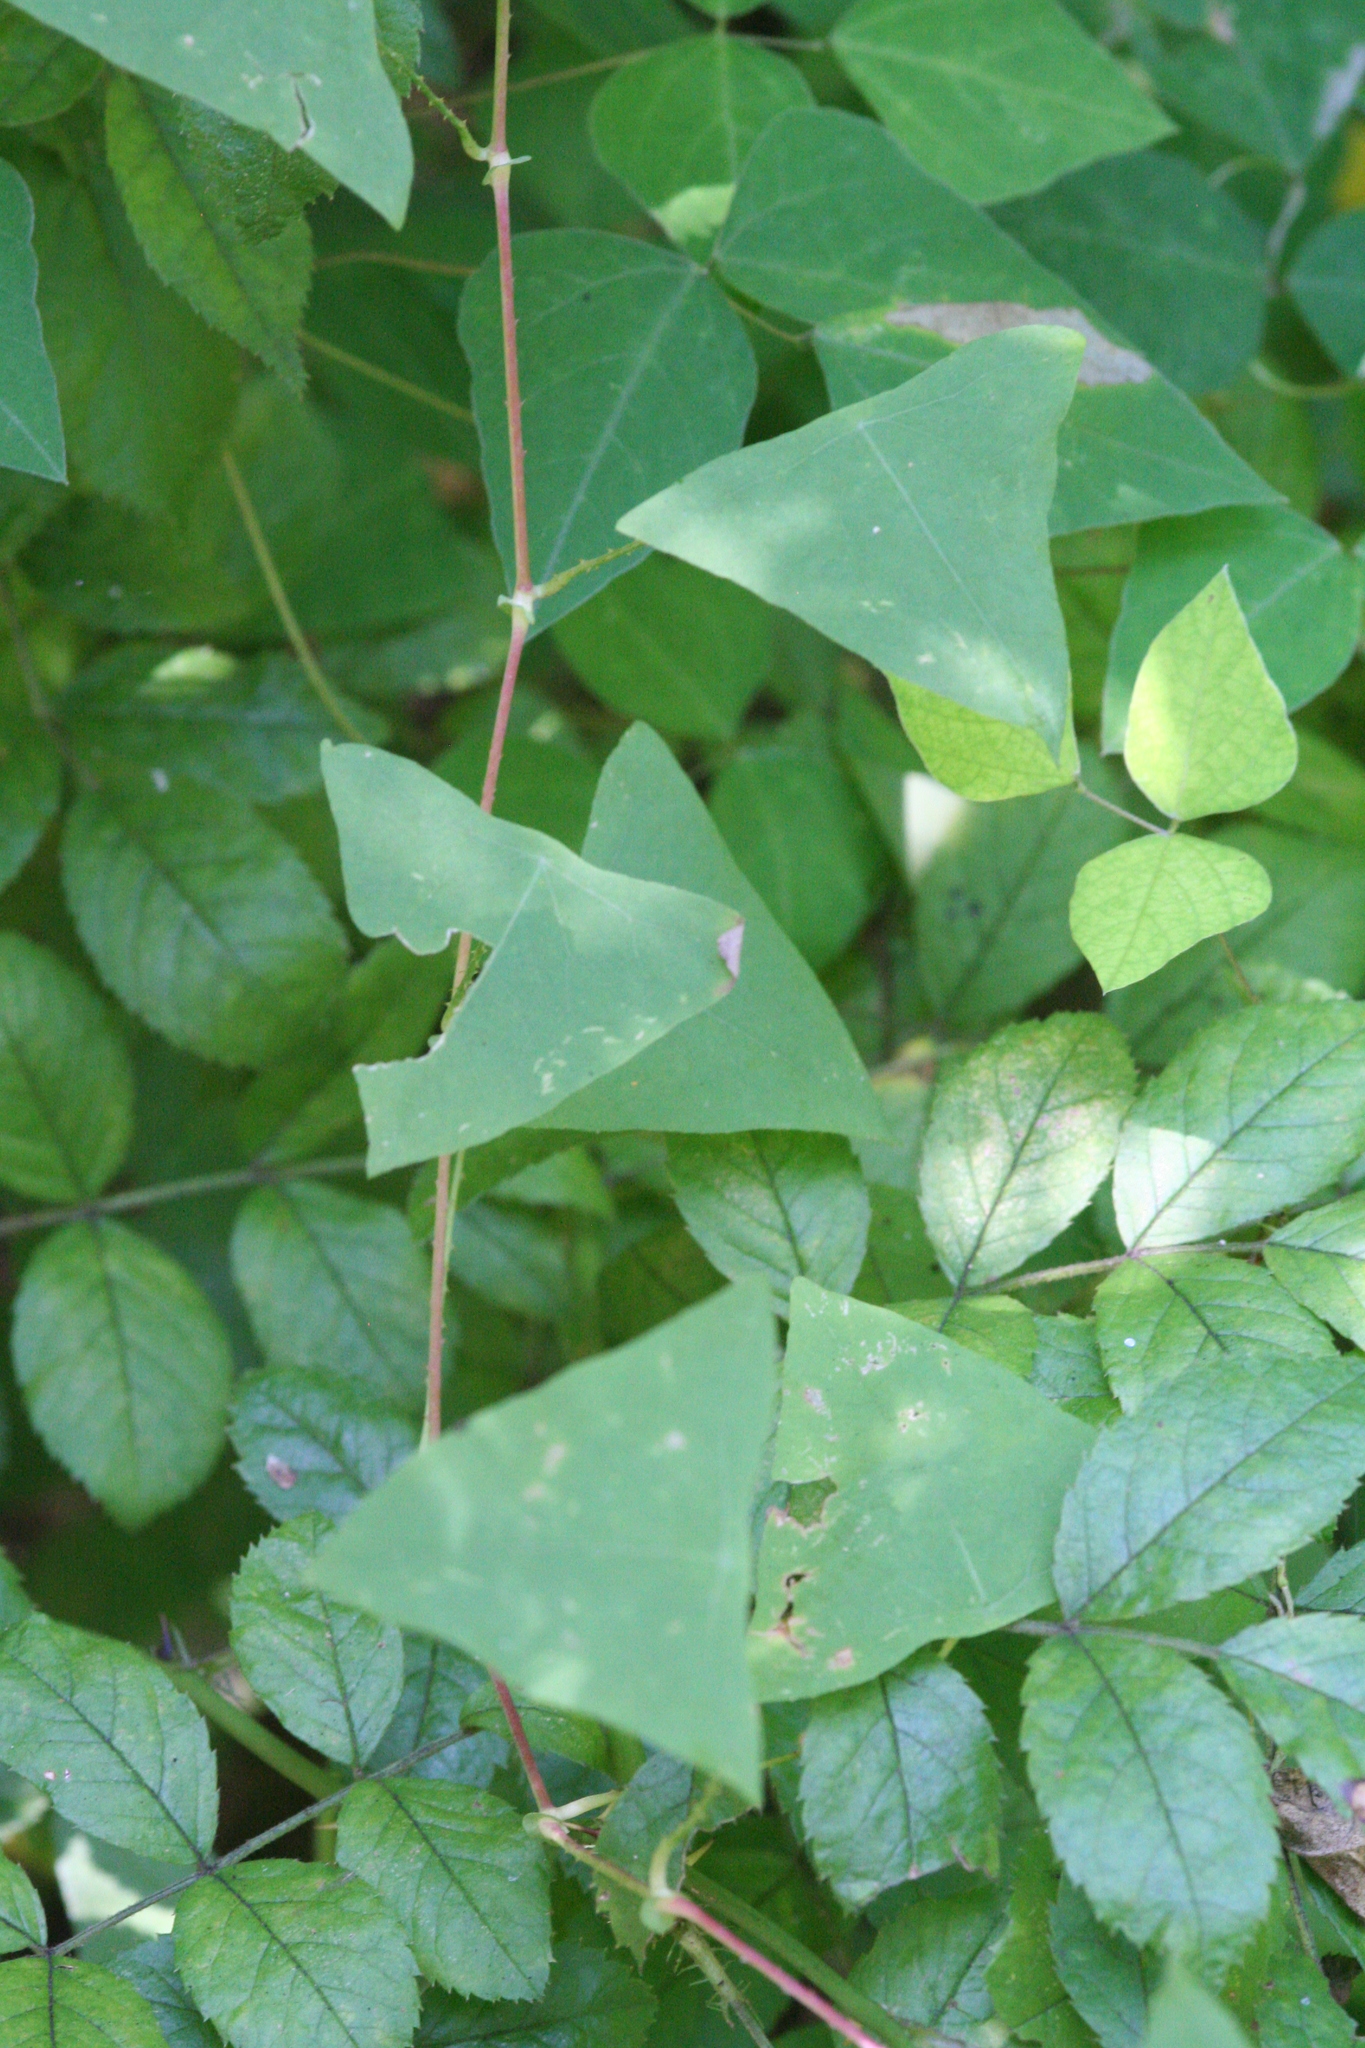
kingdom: Plantae
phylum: Tracheophyta
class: Magnoliopsida
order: Caryophyllales
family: Polygonaceae
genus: Persicaria
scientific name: Persicaria perfoliata
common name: Asiatic tearthumb
